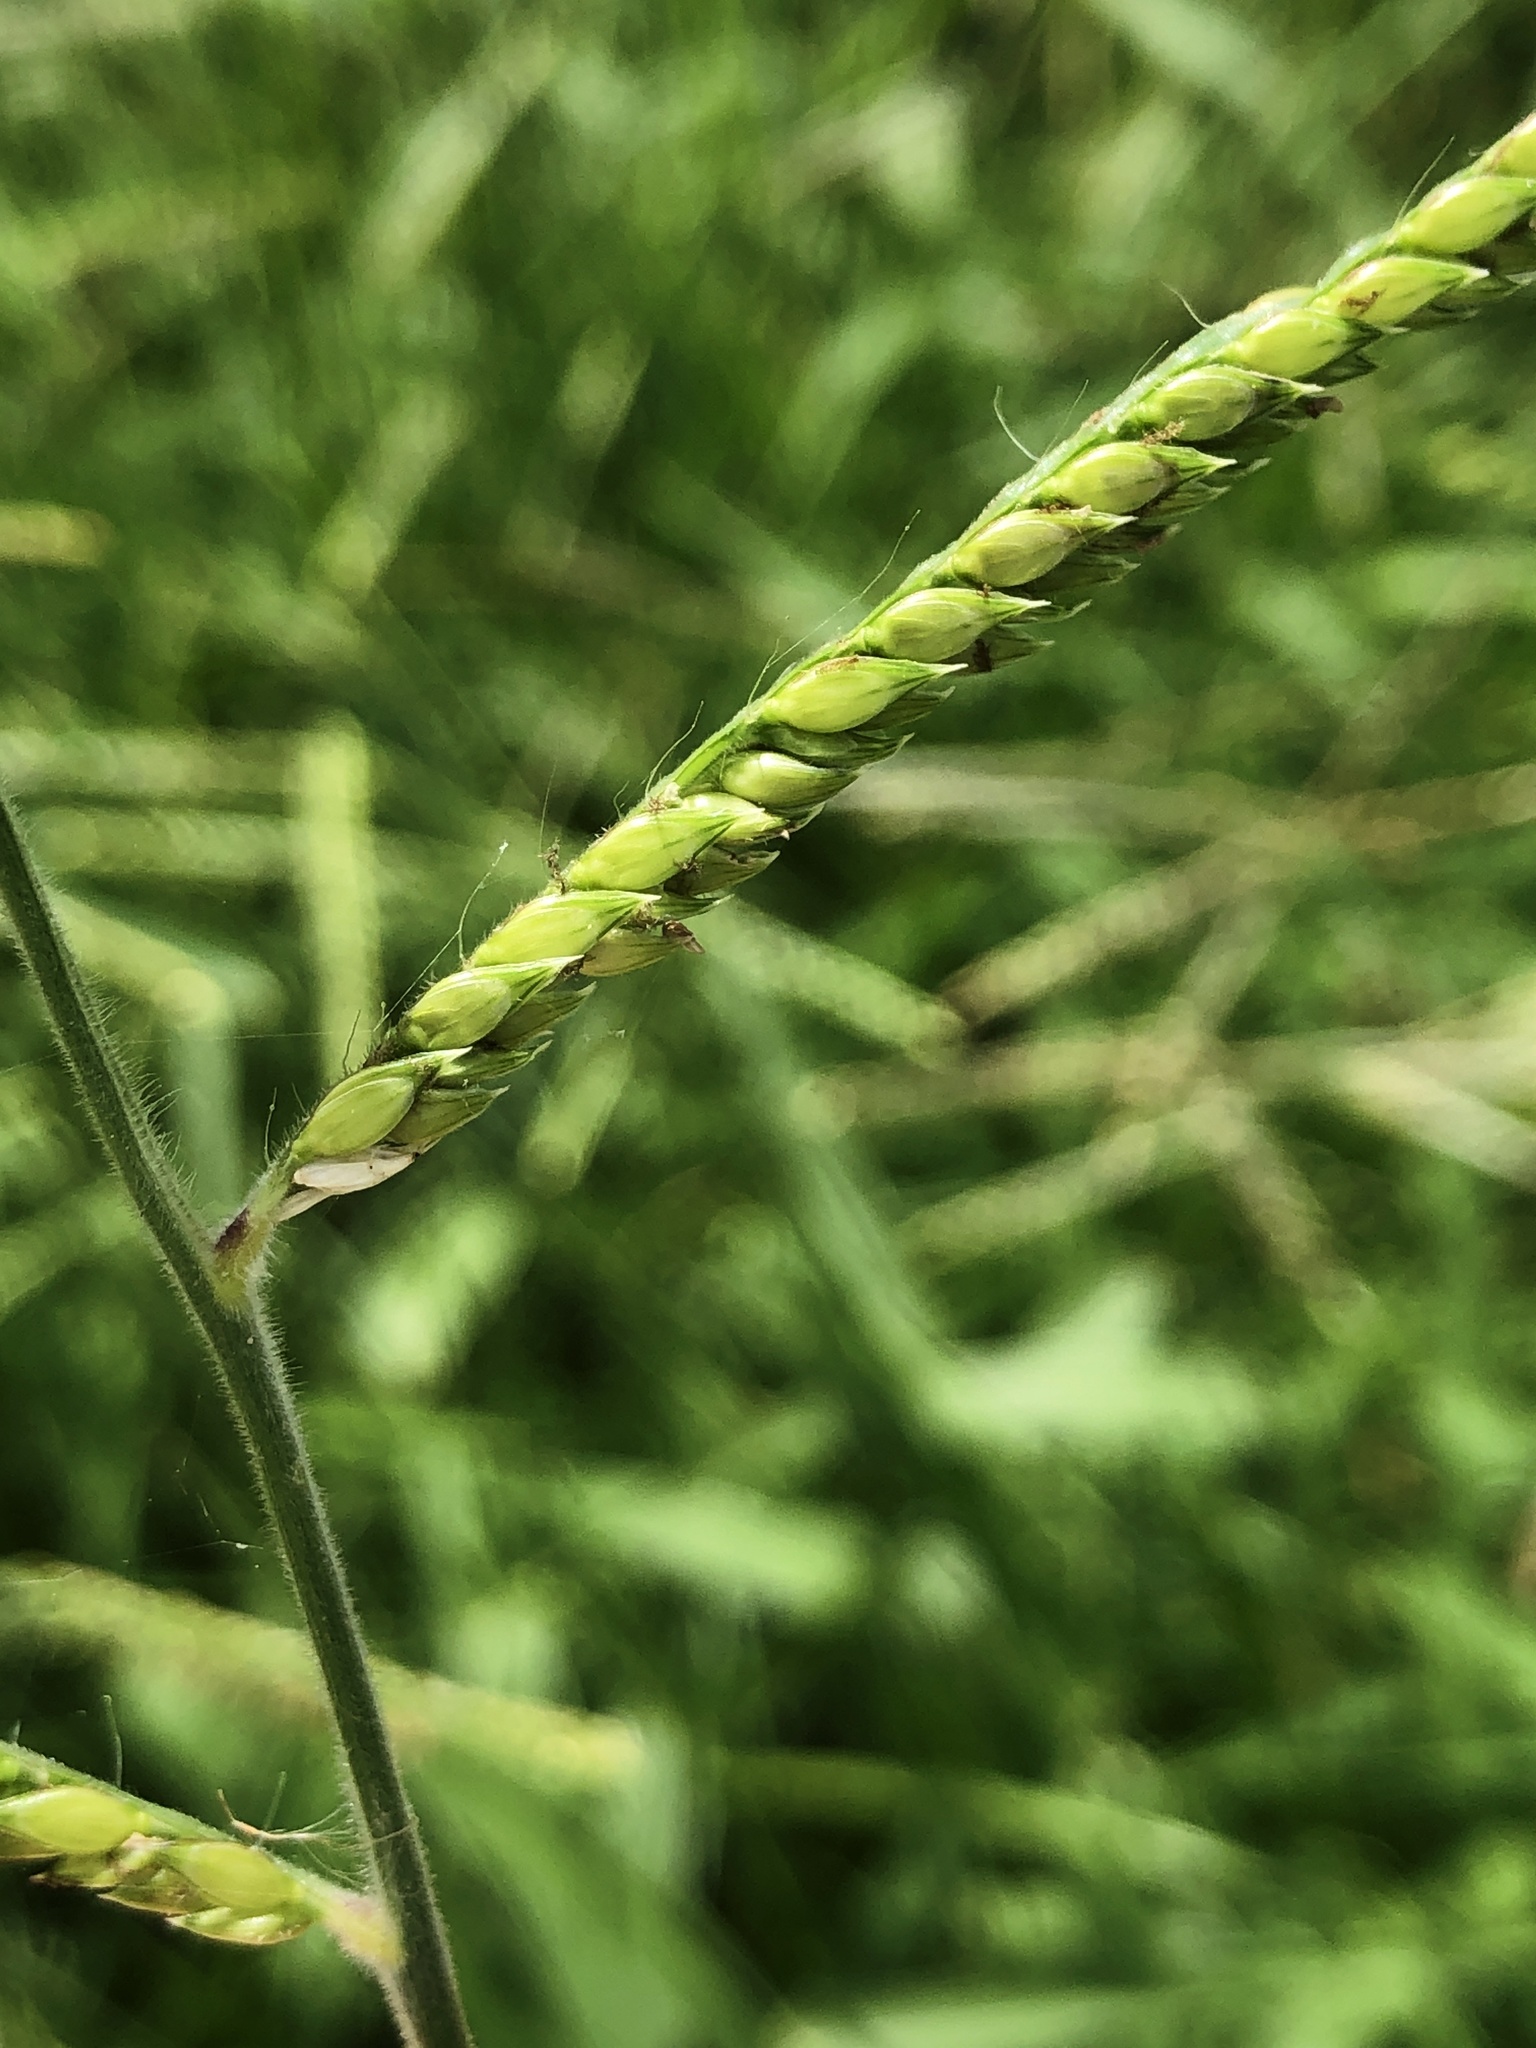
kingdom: Plantae
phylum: Tracheophyta
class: Liliopsida
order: Poales
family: Poaceae
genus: Paspalum
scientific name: Paspalum dilatatum
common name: Dallisgrass
